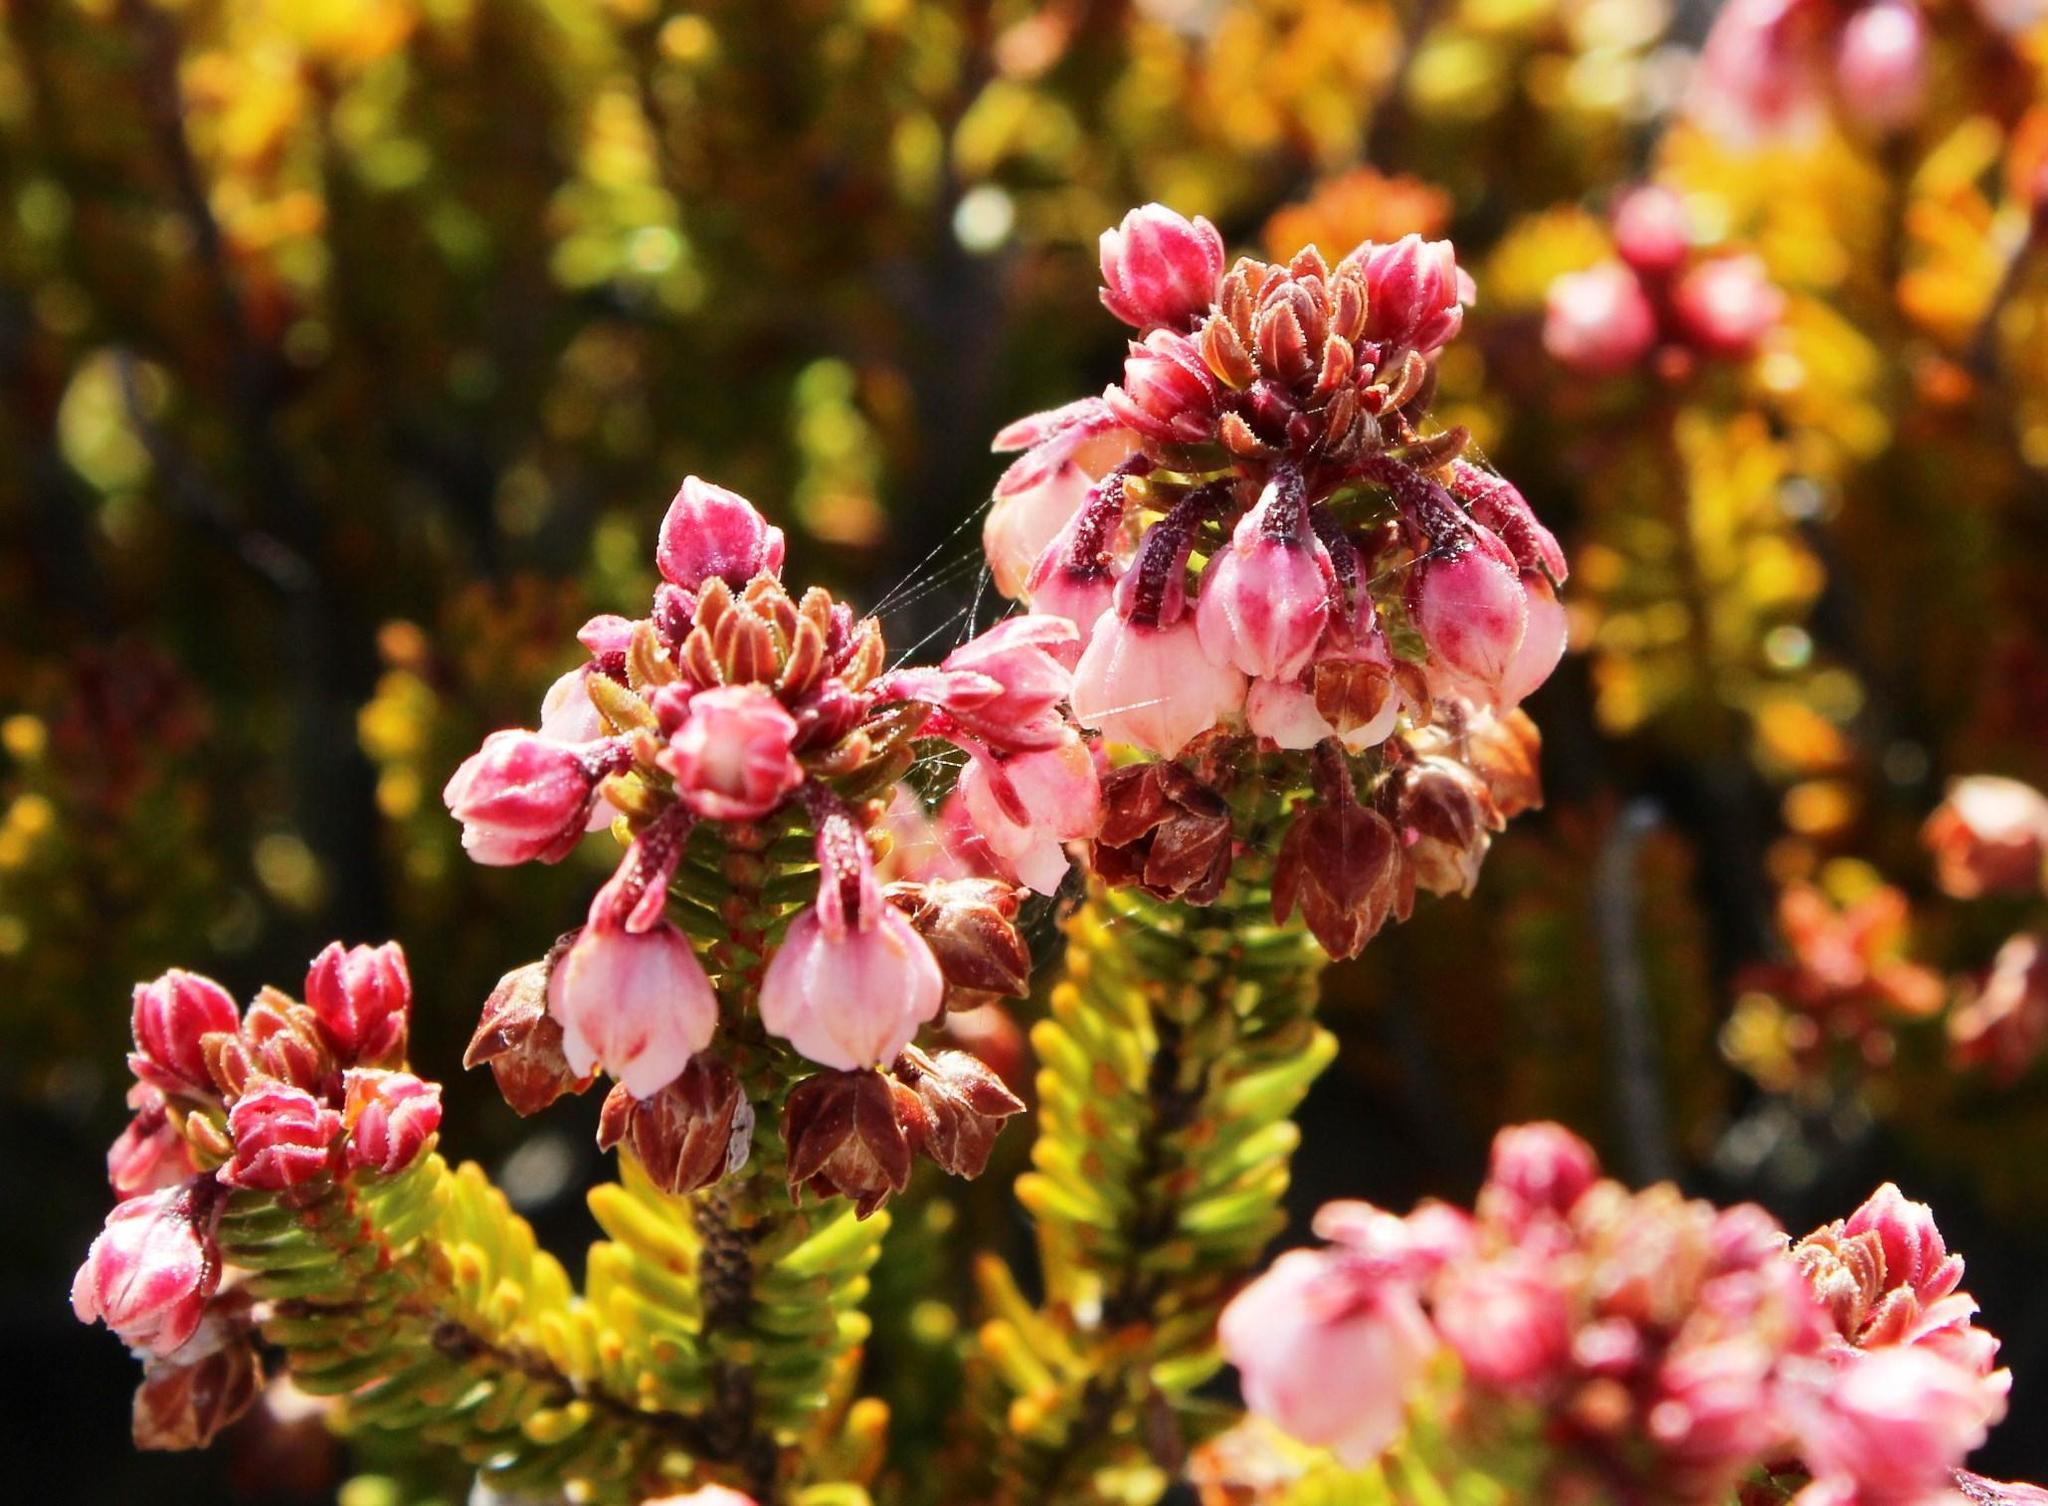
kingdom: Plantae
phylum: Tracheophyta
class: Magnoliopsida
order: Ericales
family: Ericaceae
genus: Erica
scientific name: Erica stokoei
